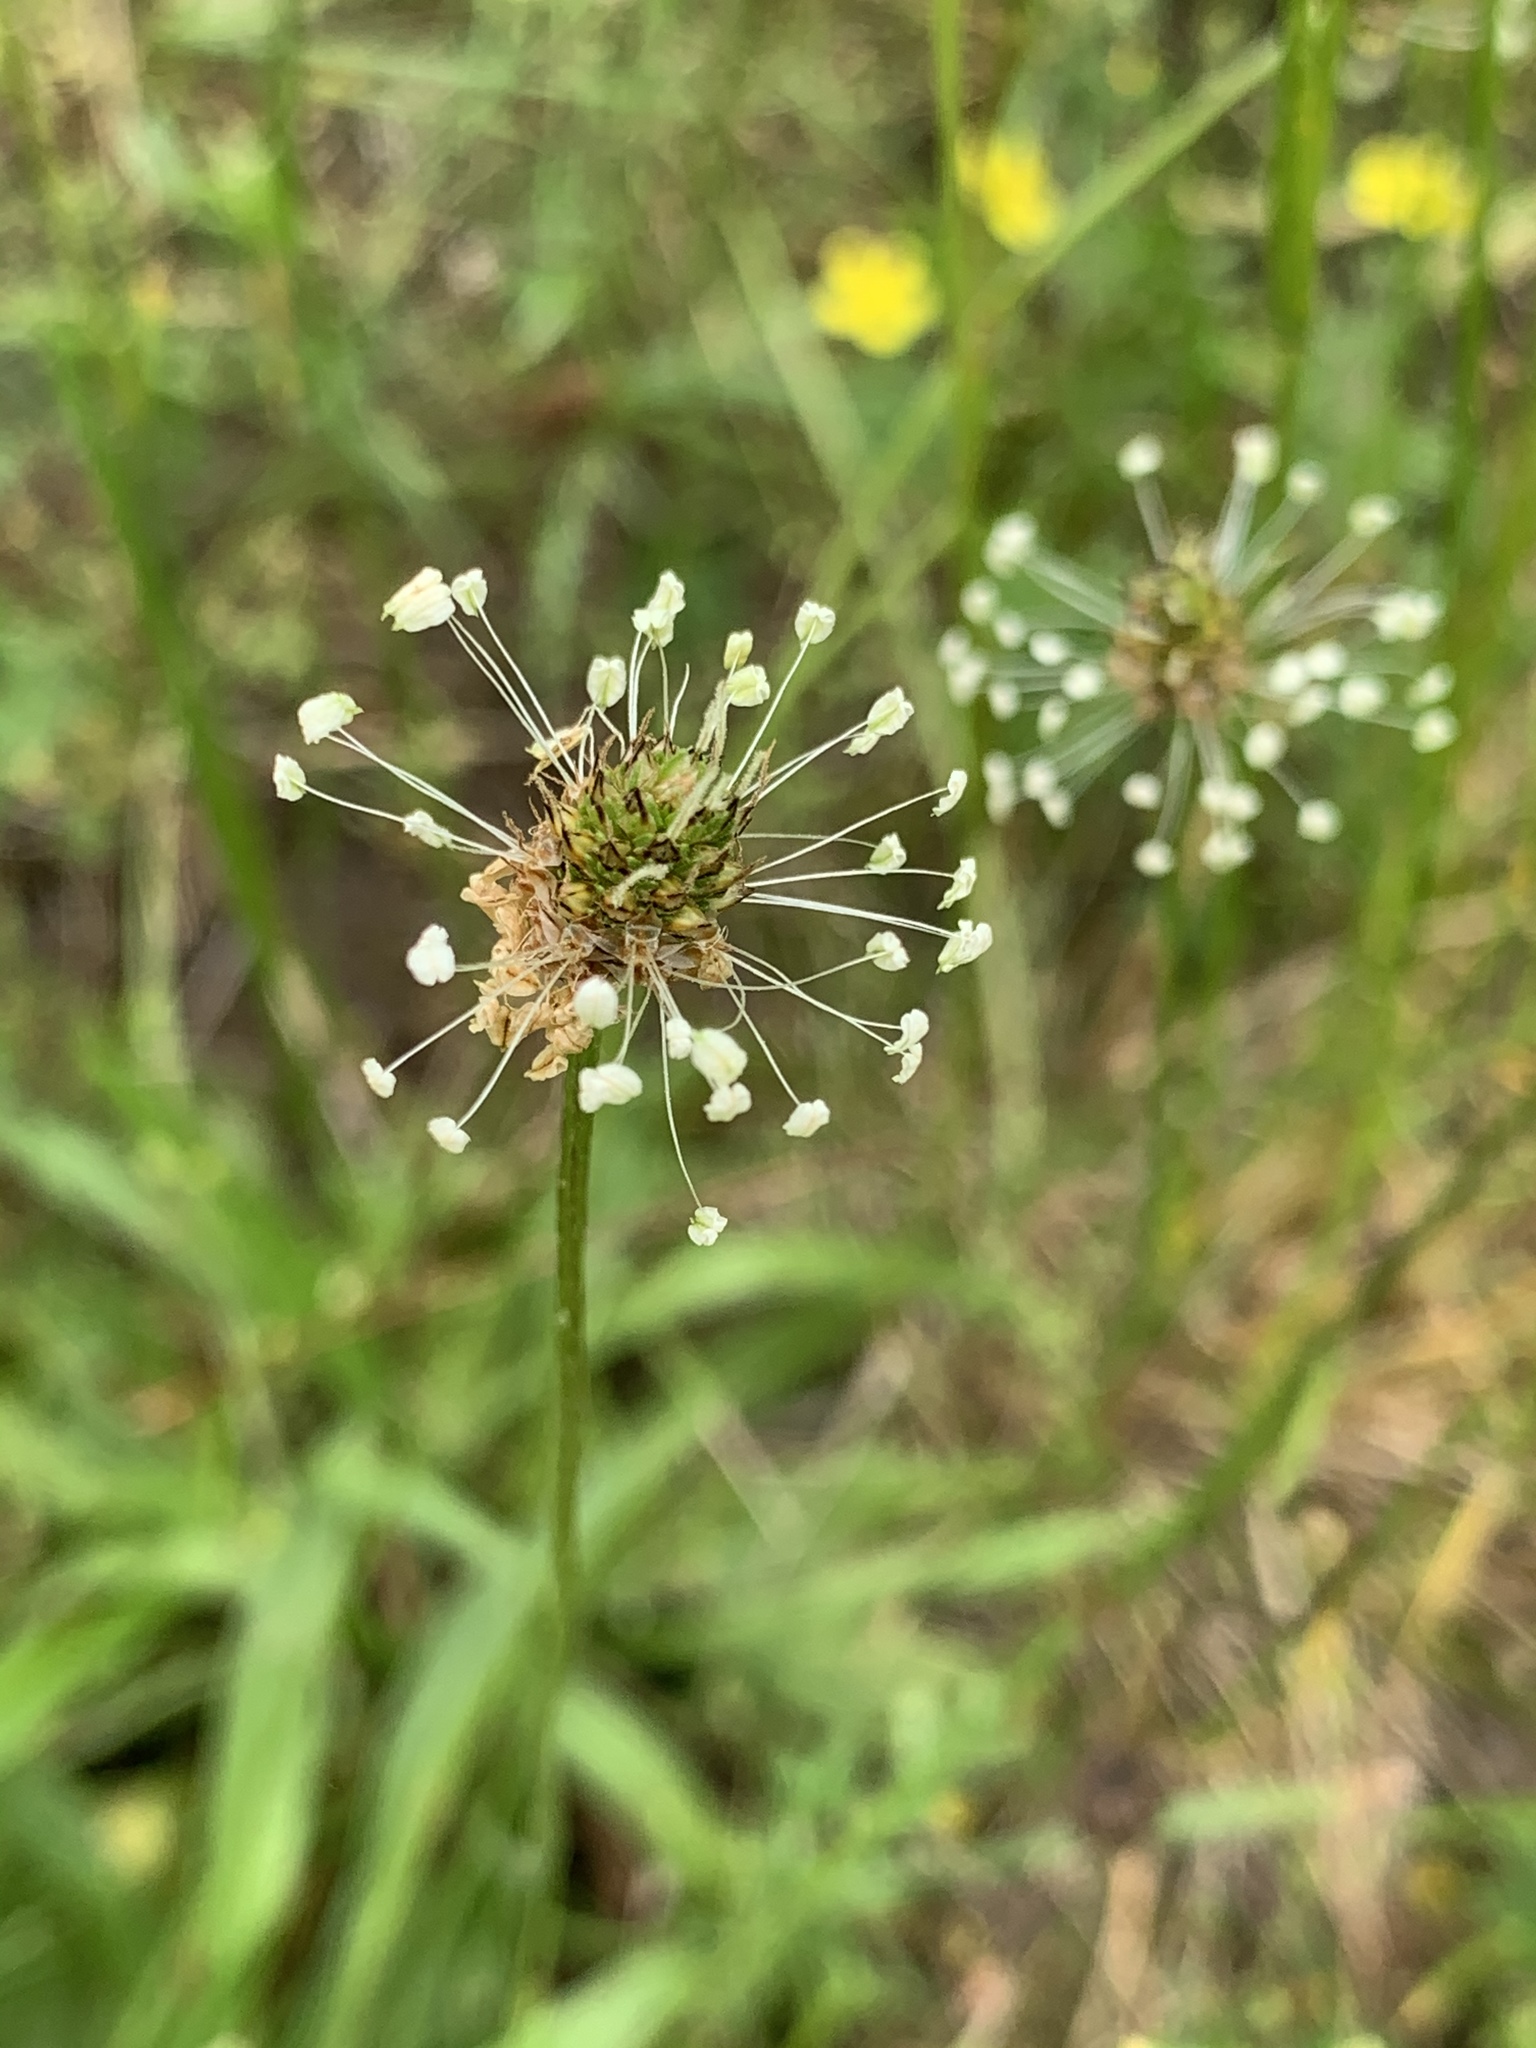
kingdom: Plantae
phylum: Tracheophyta
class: Magnoliopsida
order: Lamiales
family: Plantaginaceae
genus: Plantago
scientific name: Plantago lanceolata
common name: Ribwort plantain
